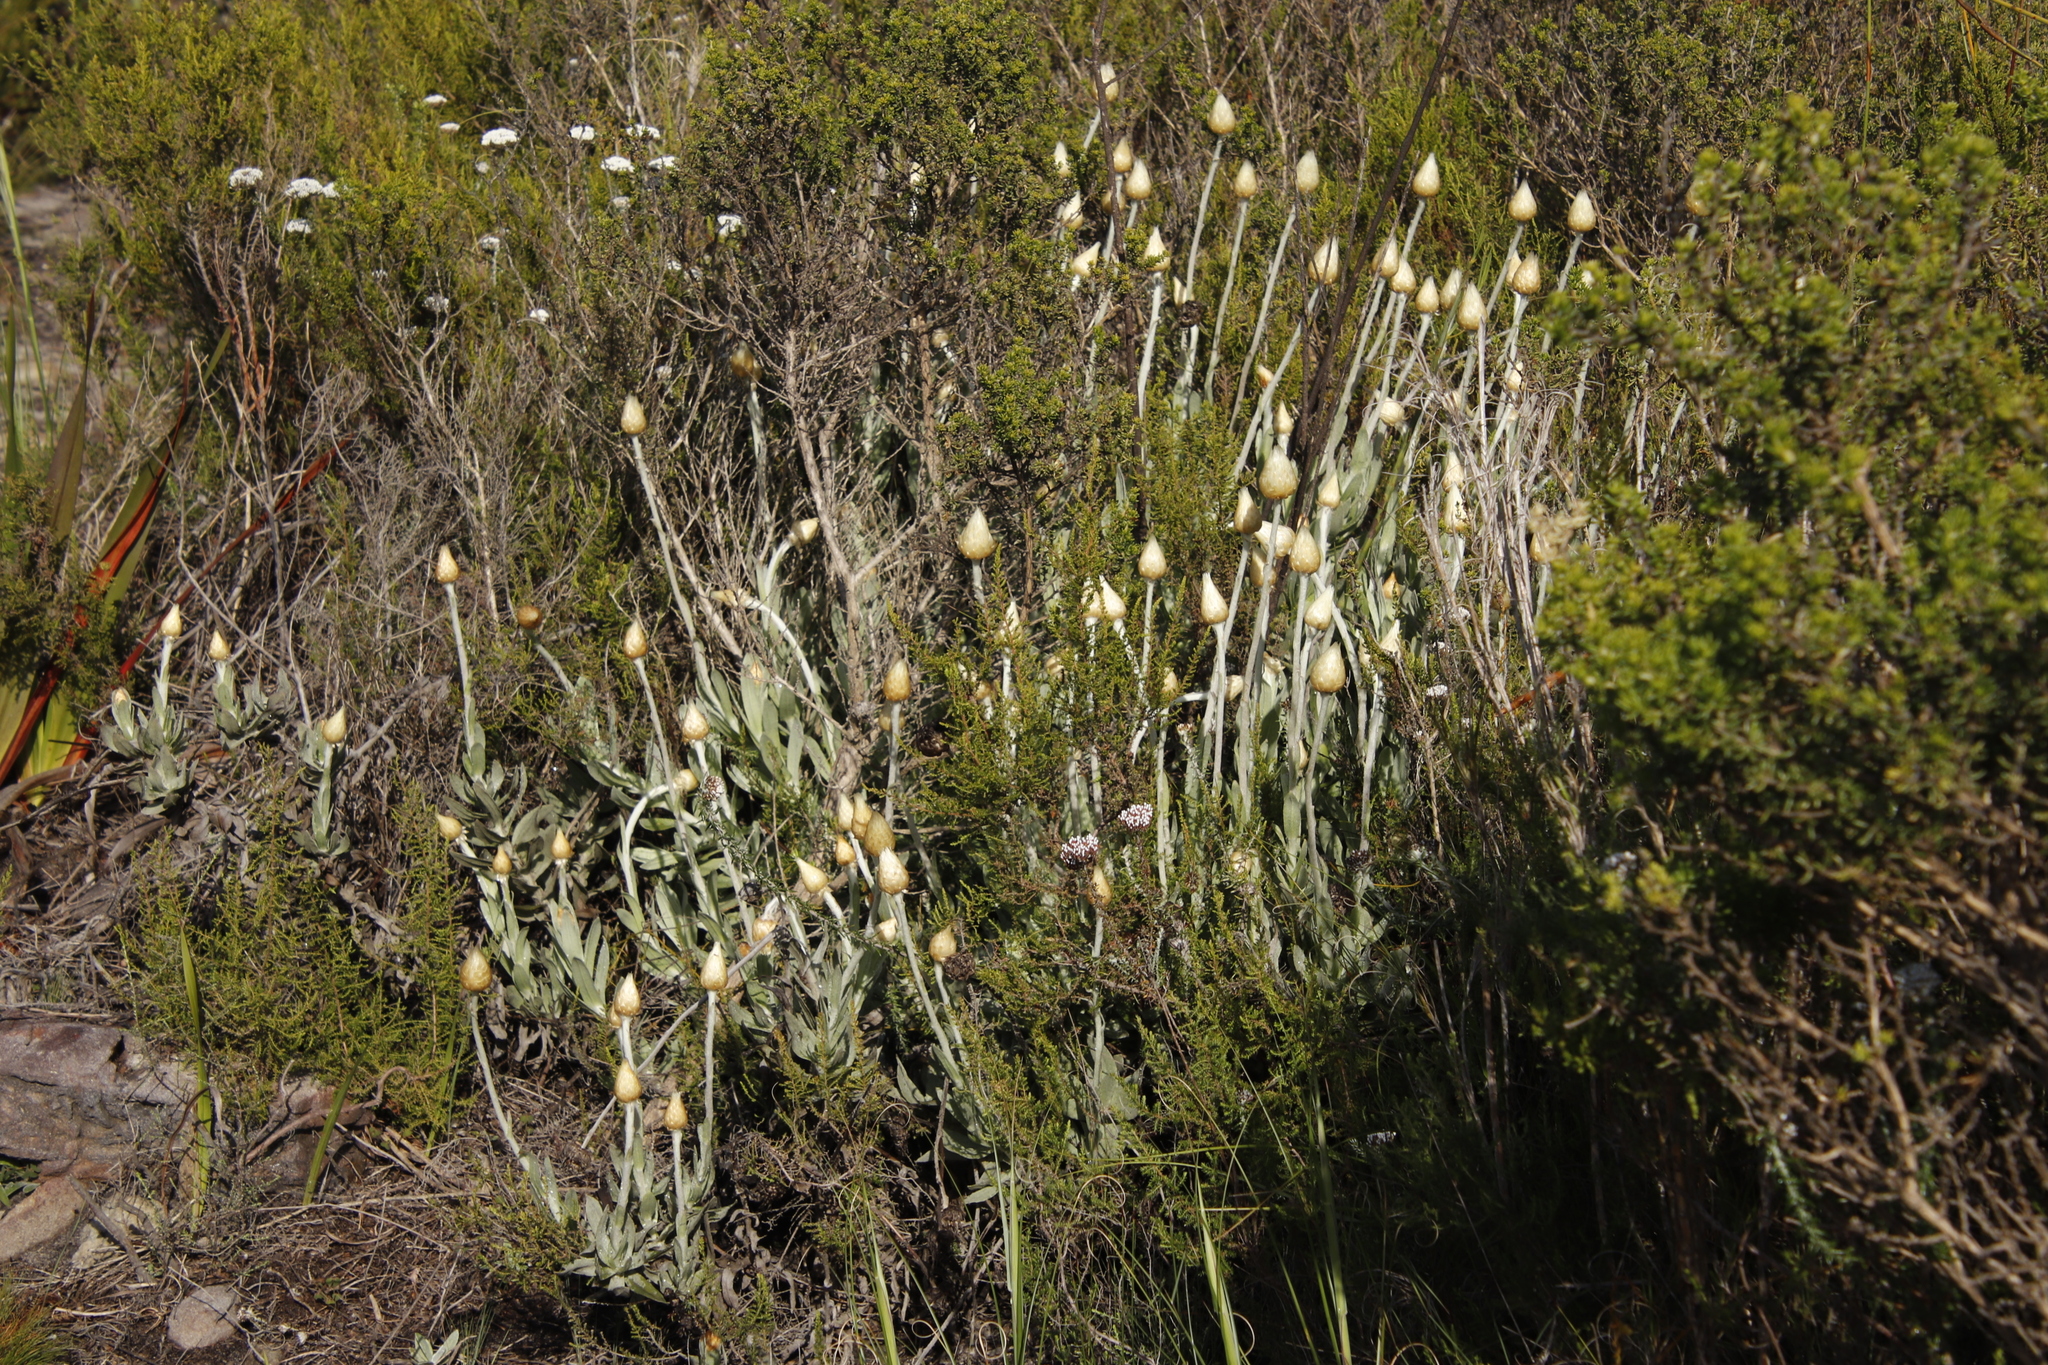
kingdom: Plantae
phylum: Tracheophyta
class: Magnoliopsida
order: Asterales
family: Asteraceae
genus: Syncarpha
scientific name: Syncarpha speciosissima
